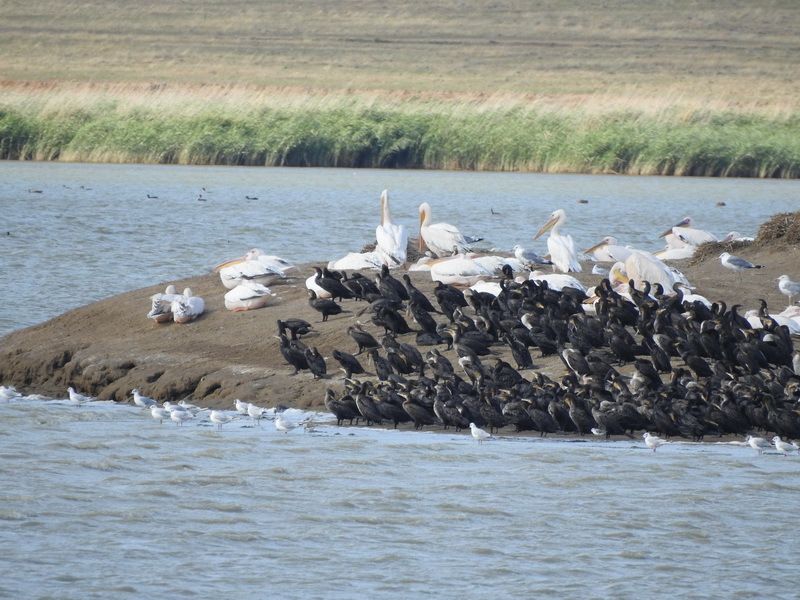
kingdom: Animalia
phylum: Chordata
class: Aves
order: Suliformes
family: Phalacrocoracidae
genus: Phalacrocorax
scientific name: Phalacrocorax carbo
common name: Great cormorant
